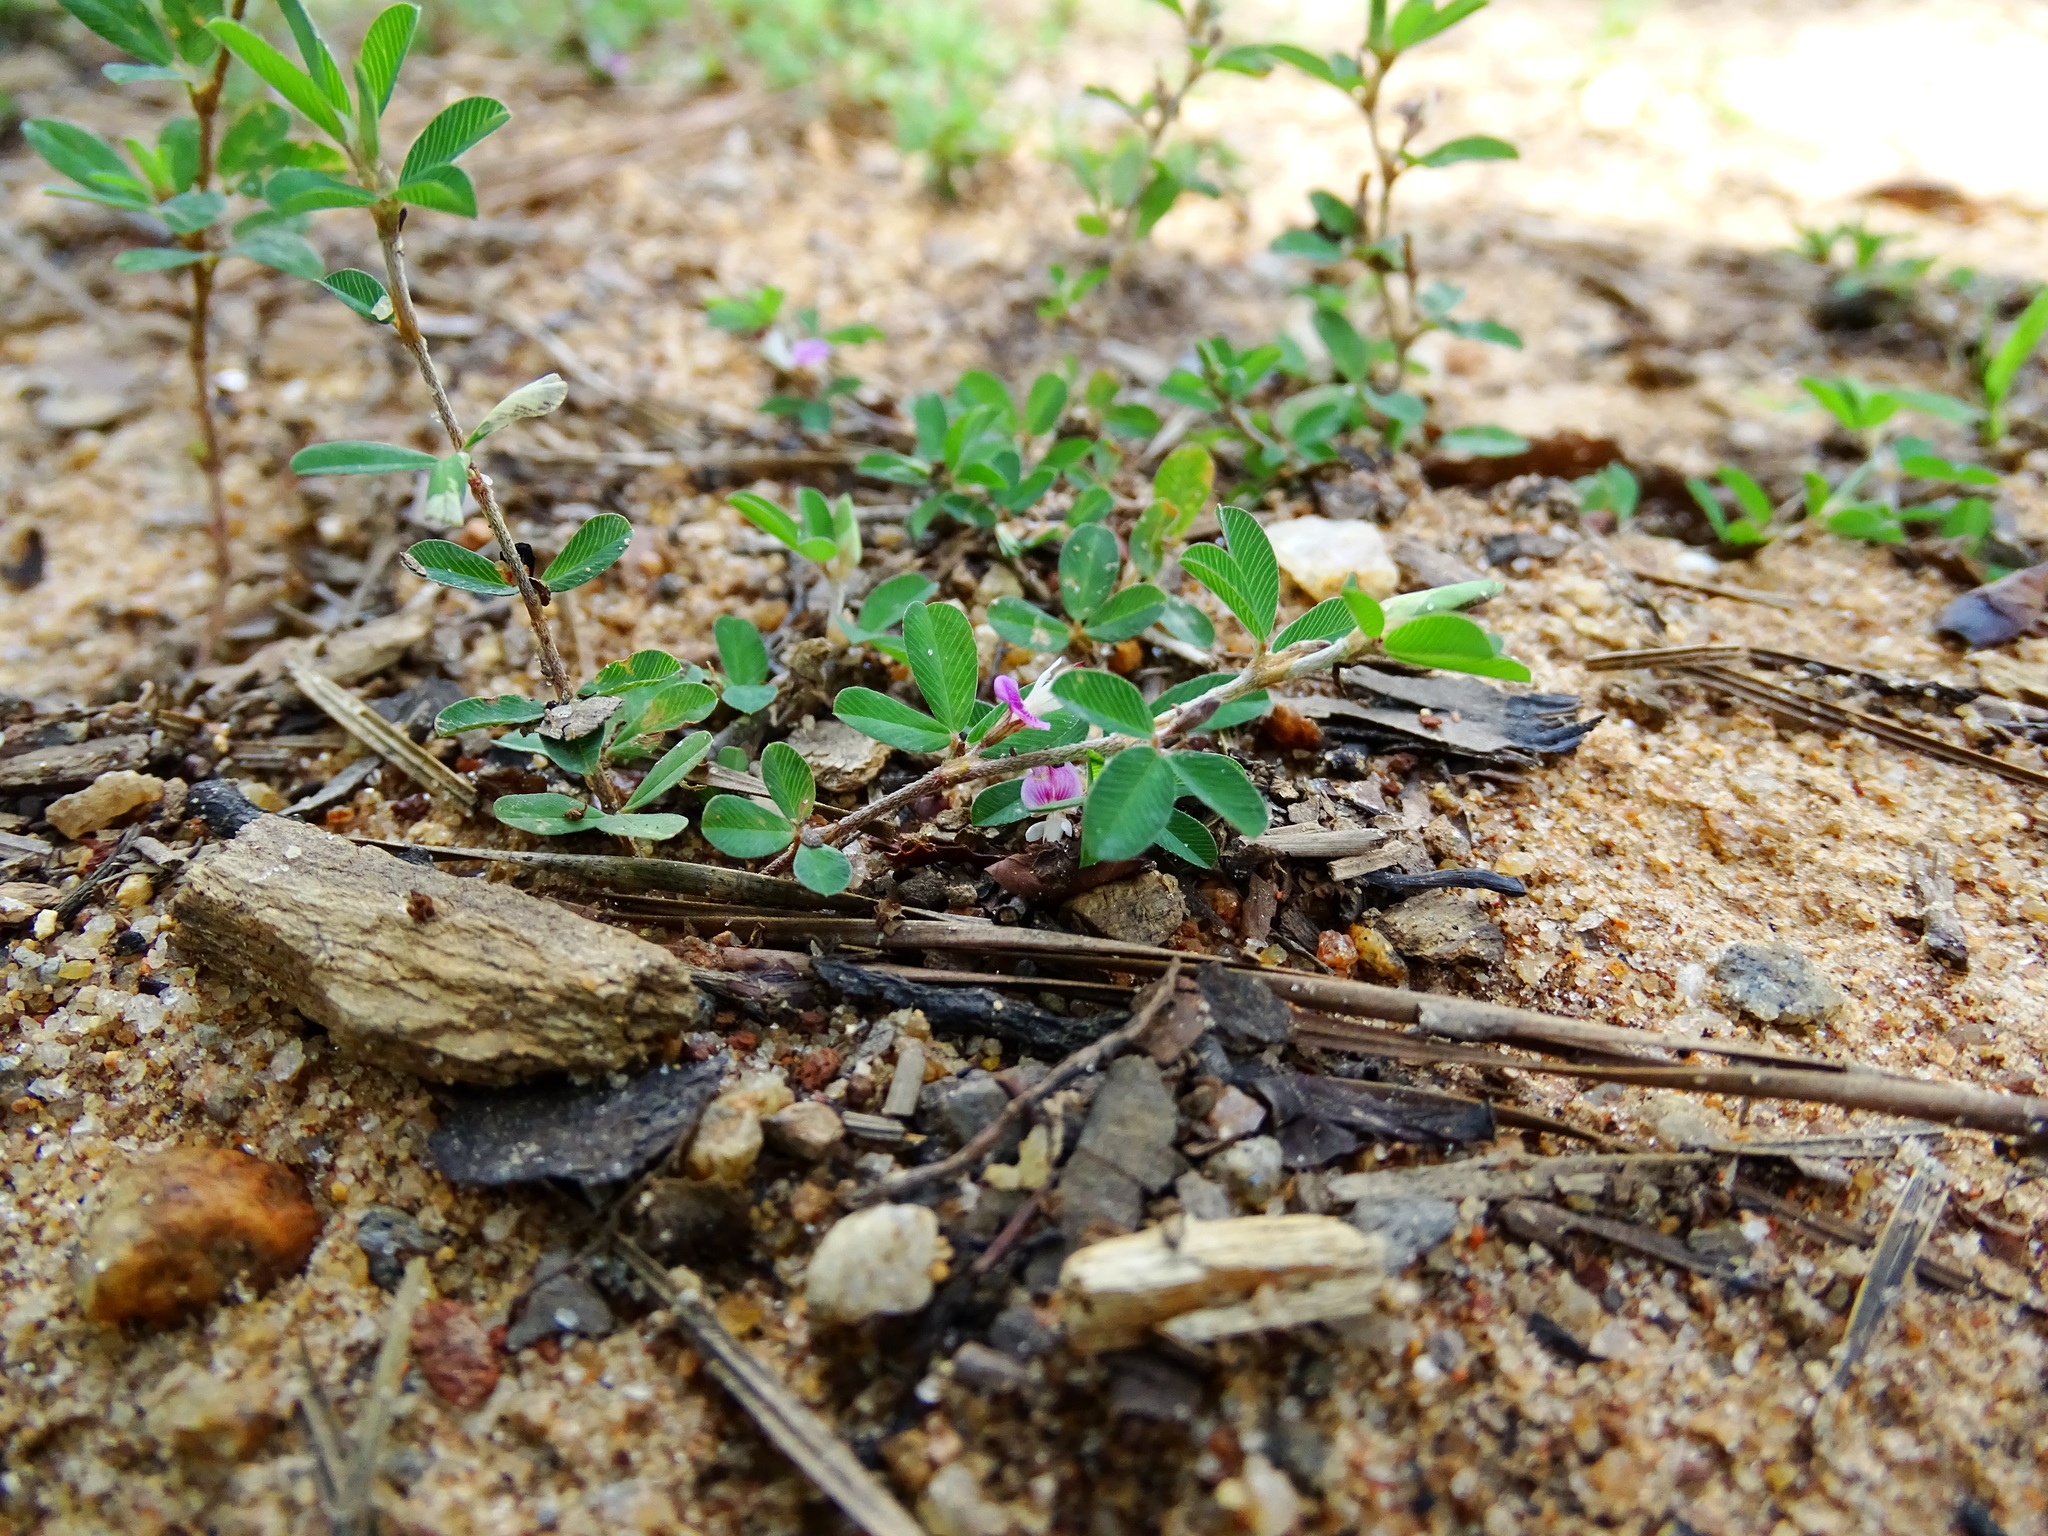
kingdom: Plantae
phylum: Tracheophyta
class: Magnoliopsida
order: Fabales
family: Fabaceae
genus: Kummerowia
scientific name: Kummerowia striata
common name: Japanese clover
